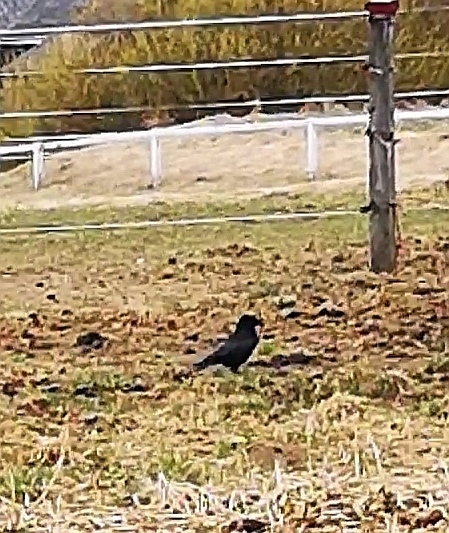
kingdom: Animalia
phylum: Chordata
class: Aves
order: Passeriformes
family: Corvidae
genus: Corvus
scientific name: Corvus corone
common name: Carrion crow
